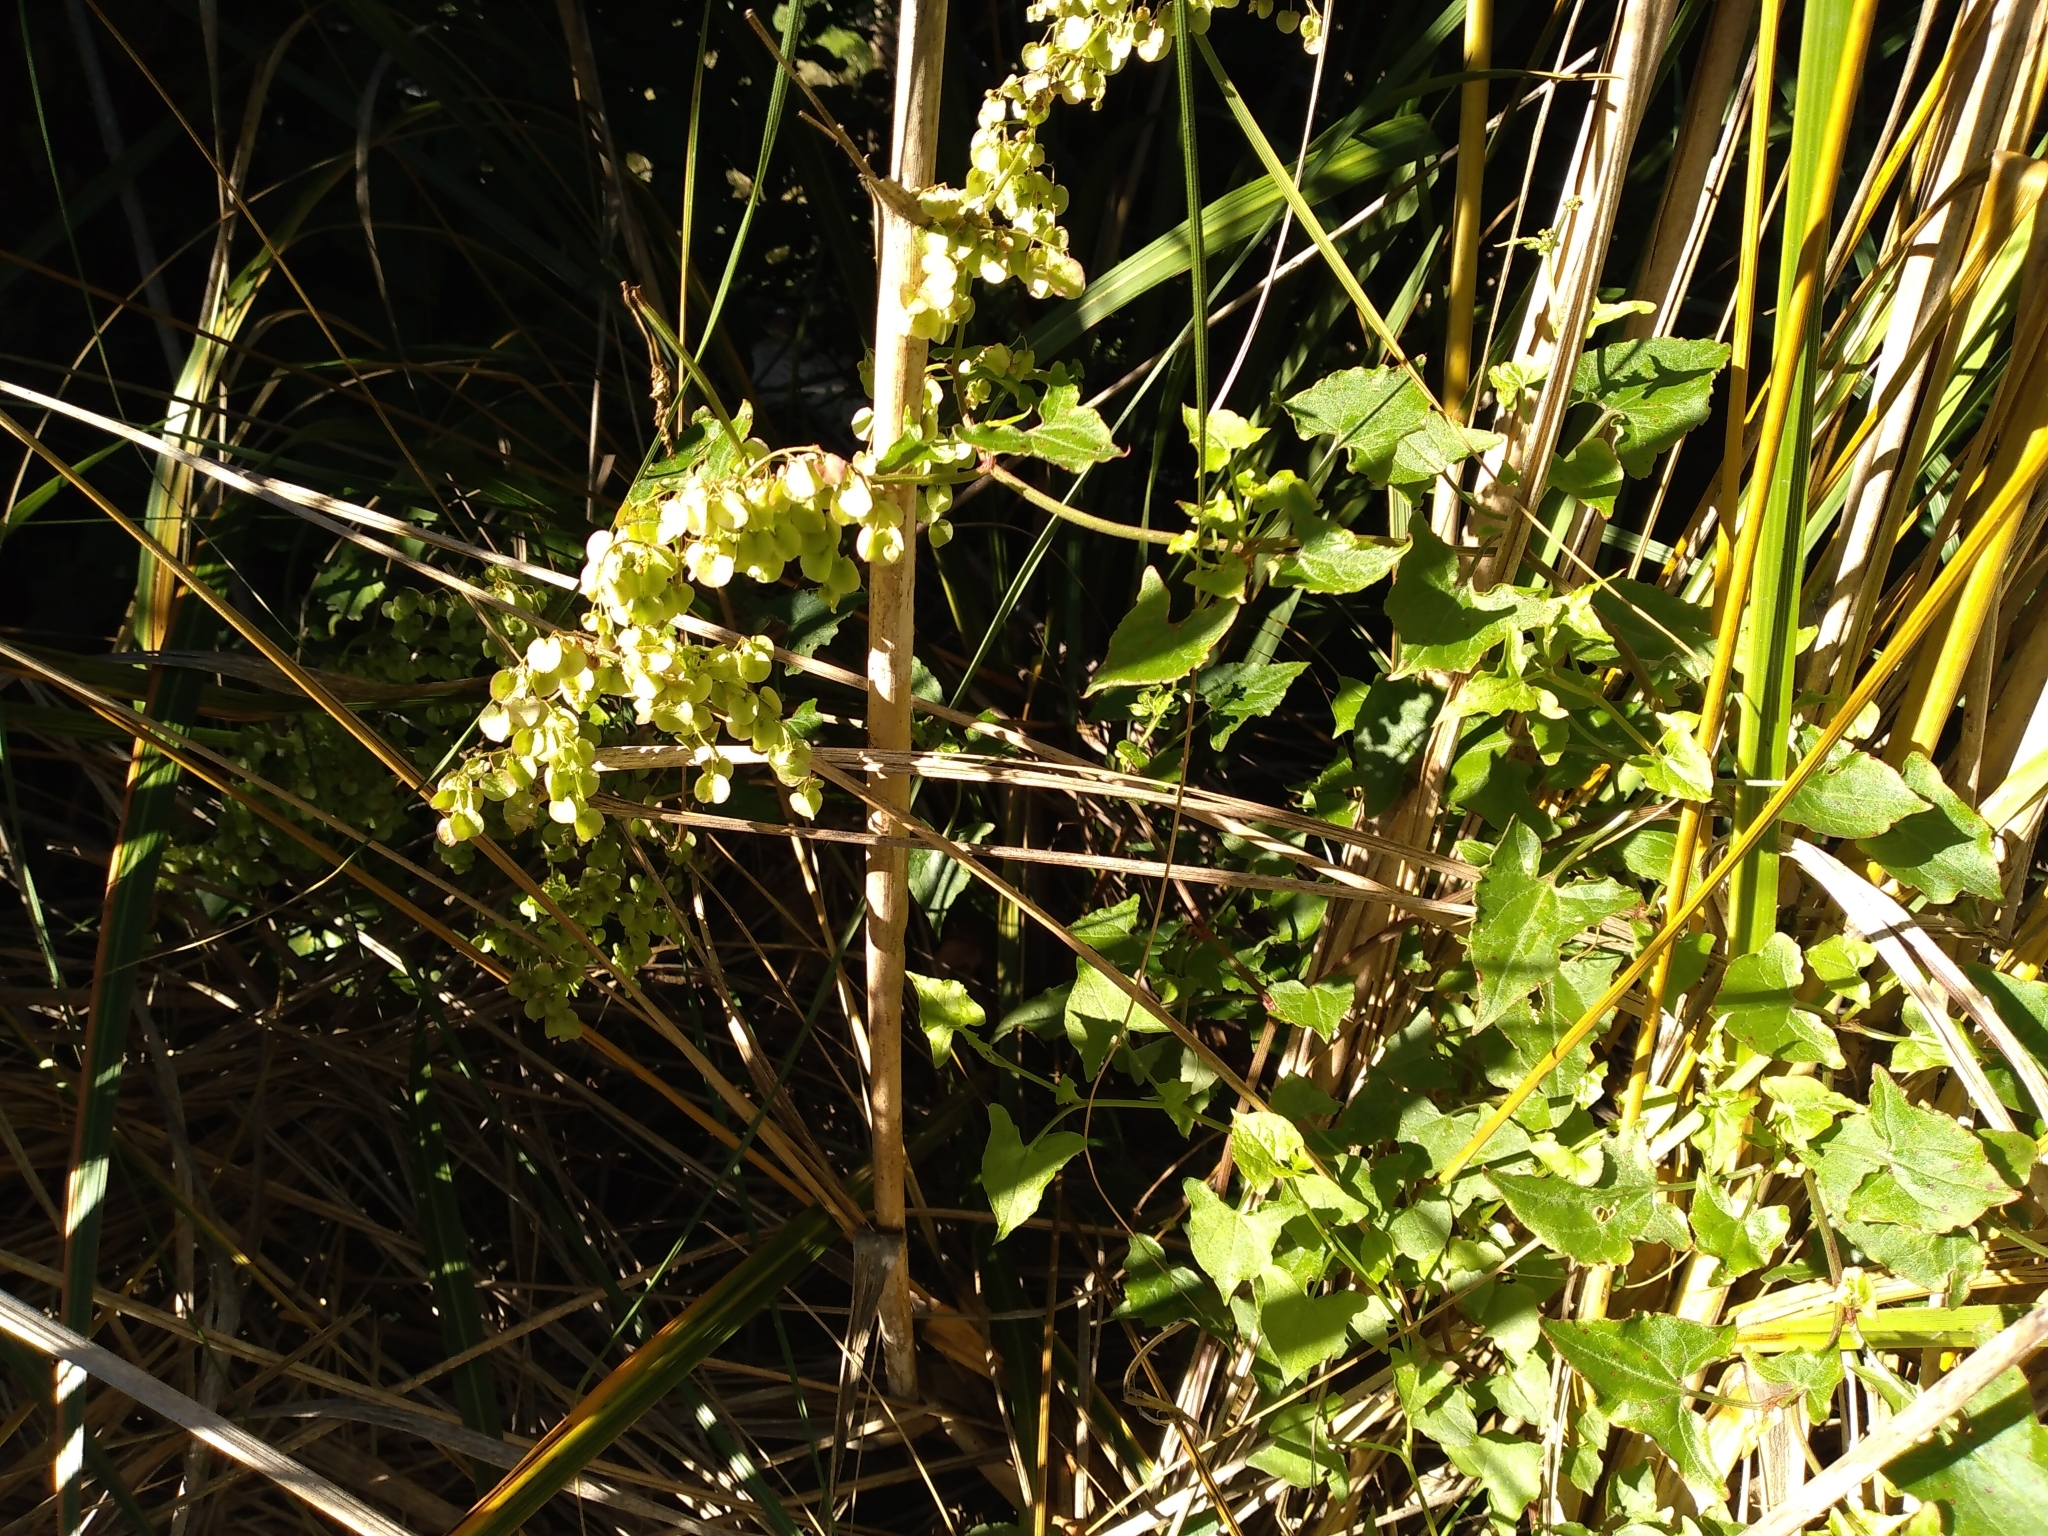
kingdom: Plantae
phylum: Tracheophyta
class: Magnoliopsida
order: Caryophyllales
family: Polygonaceae
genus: Rumex
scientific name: Rumex sagittatus
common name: Climbing dock
